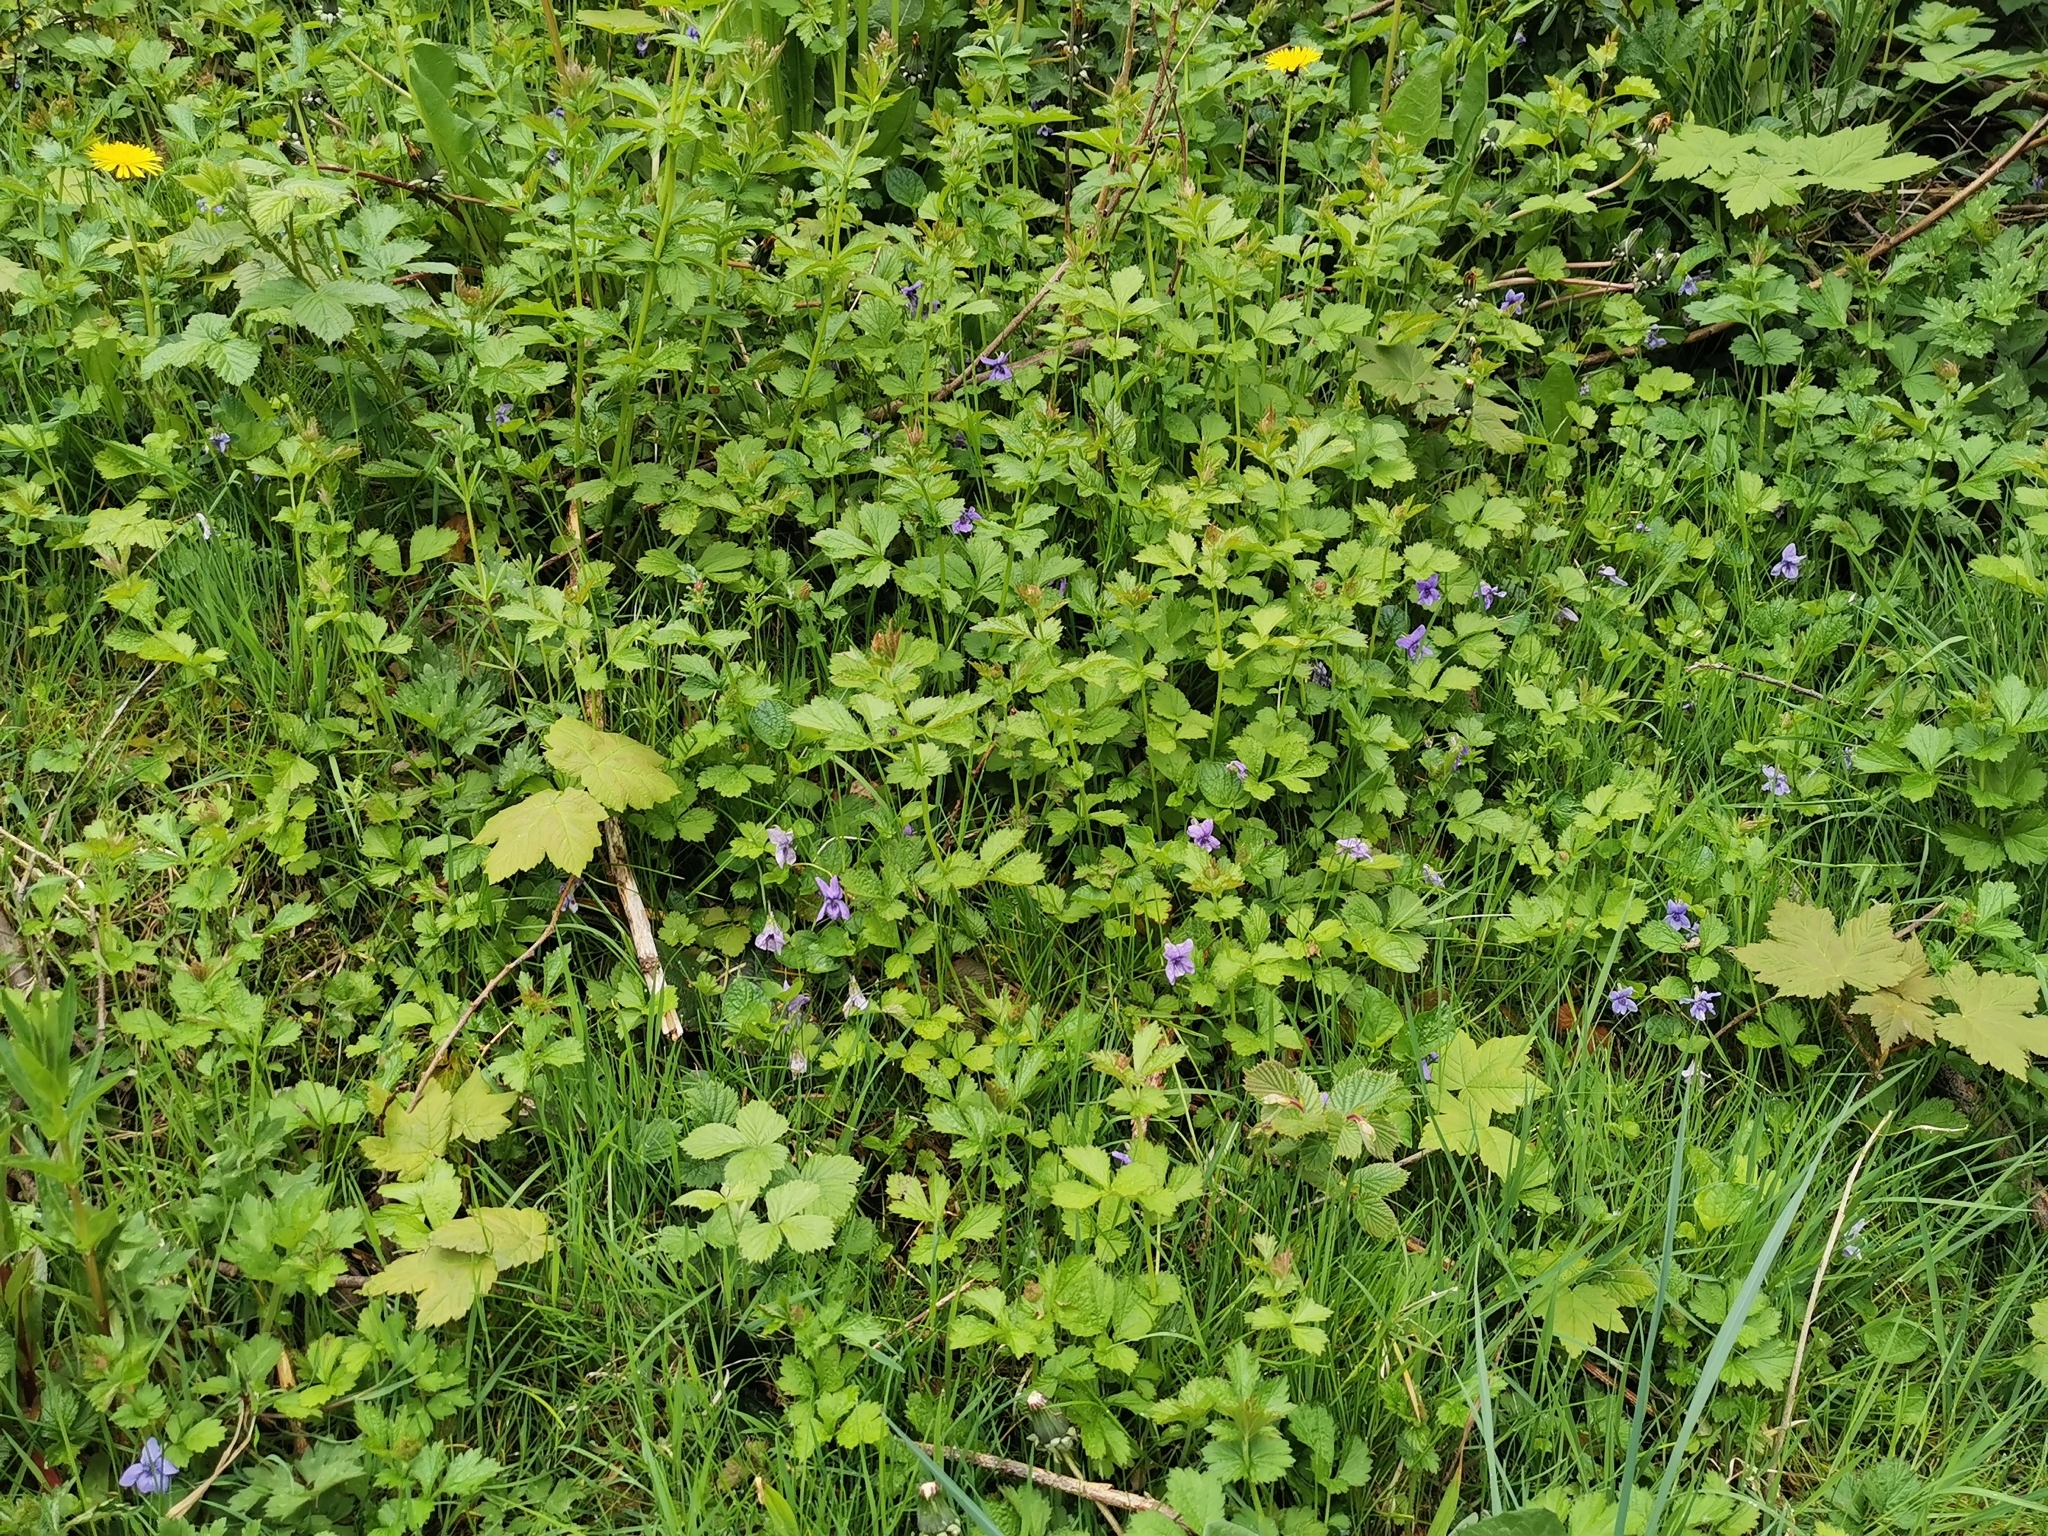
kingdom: Plantae
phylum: Tracheophyta
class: Magnoliopsida
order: Malpighiales
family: Violaceae
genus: Viola
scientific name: Viola riviniana
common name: Common dog-violet
